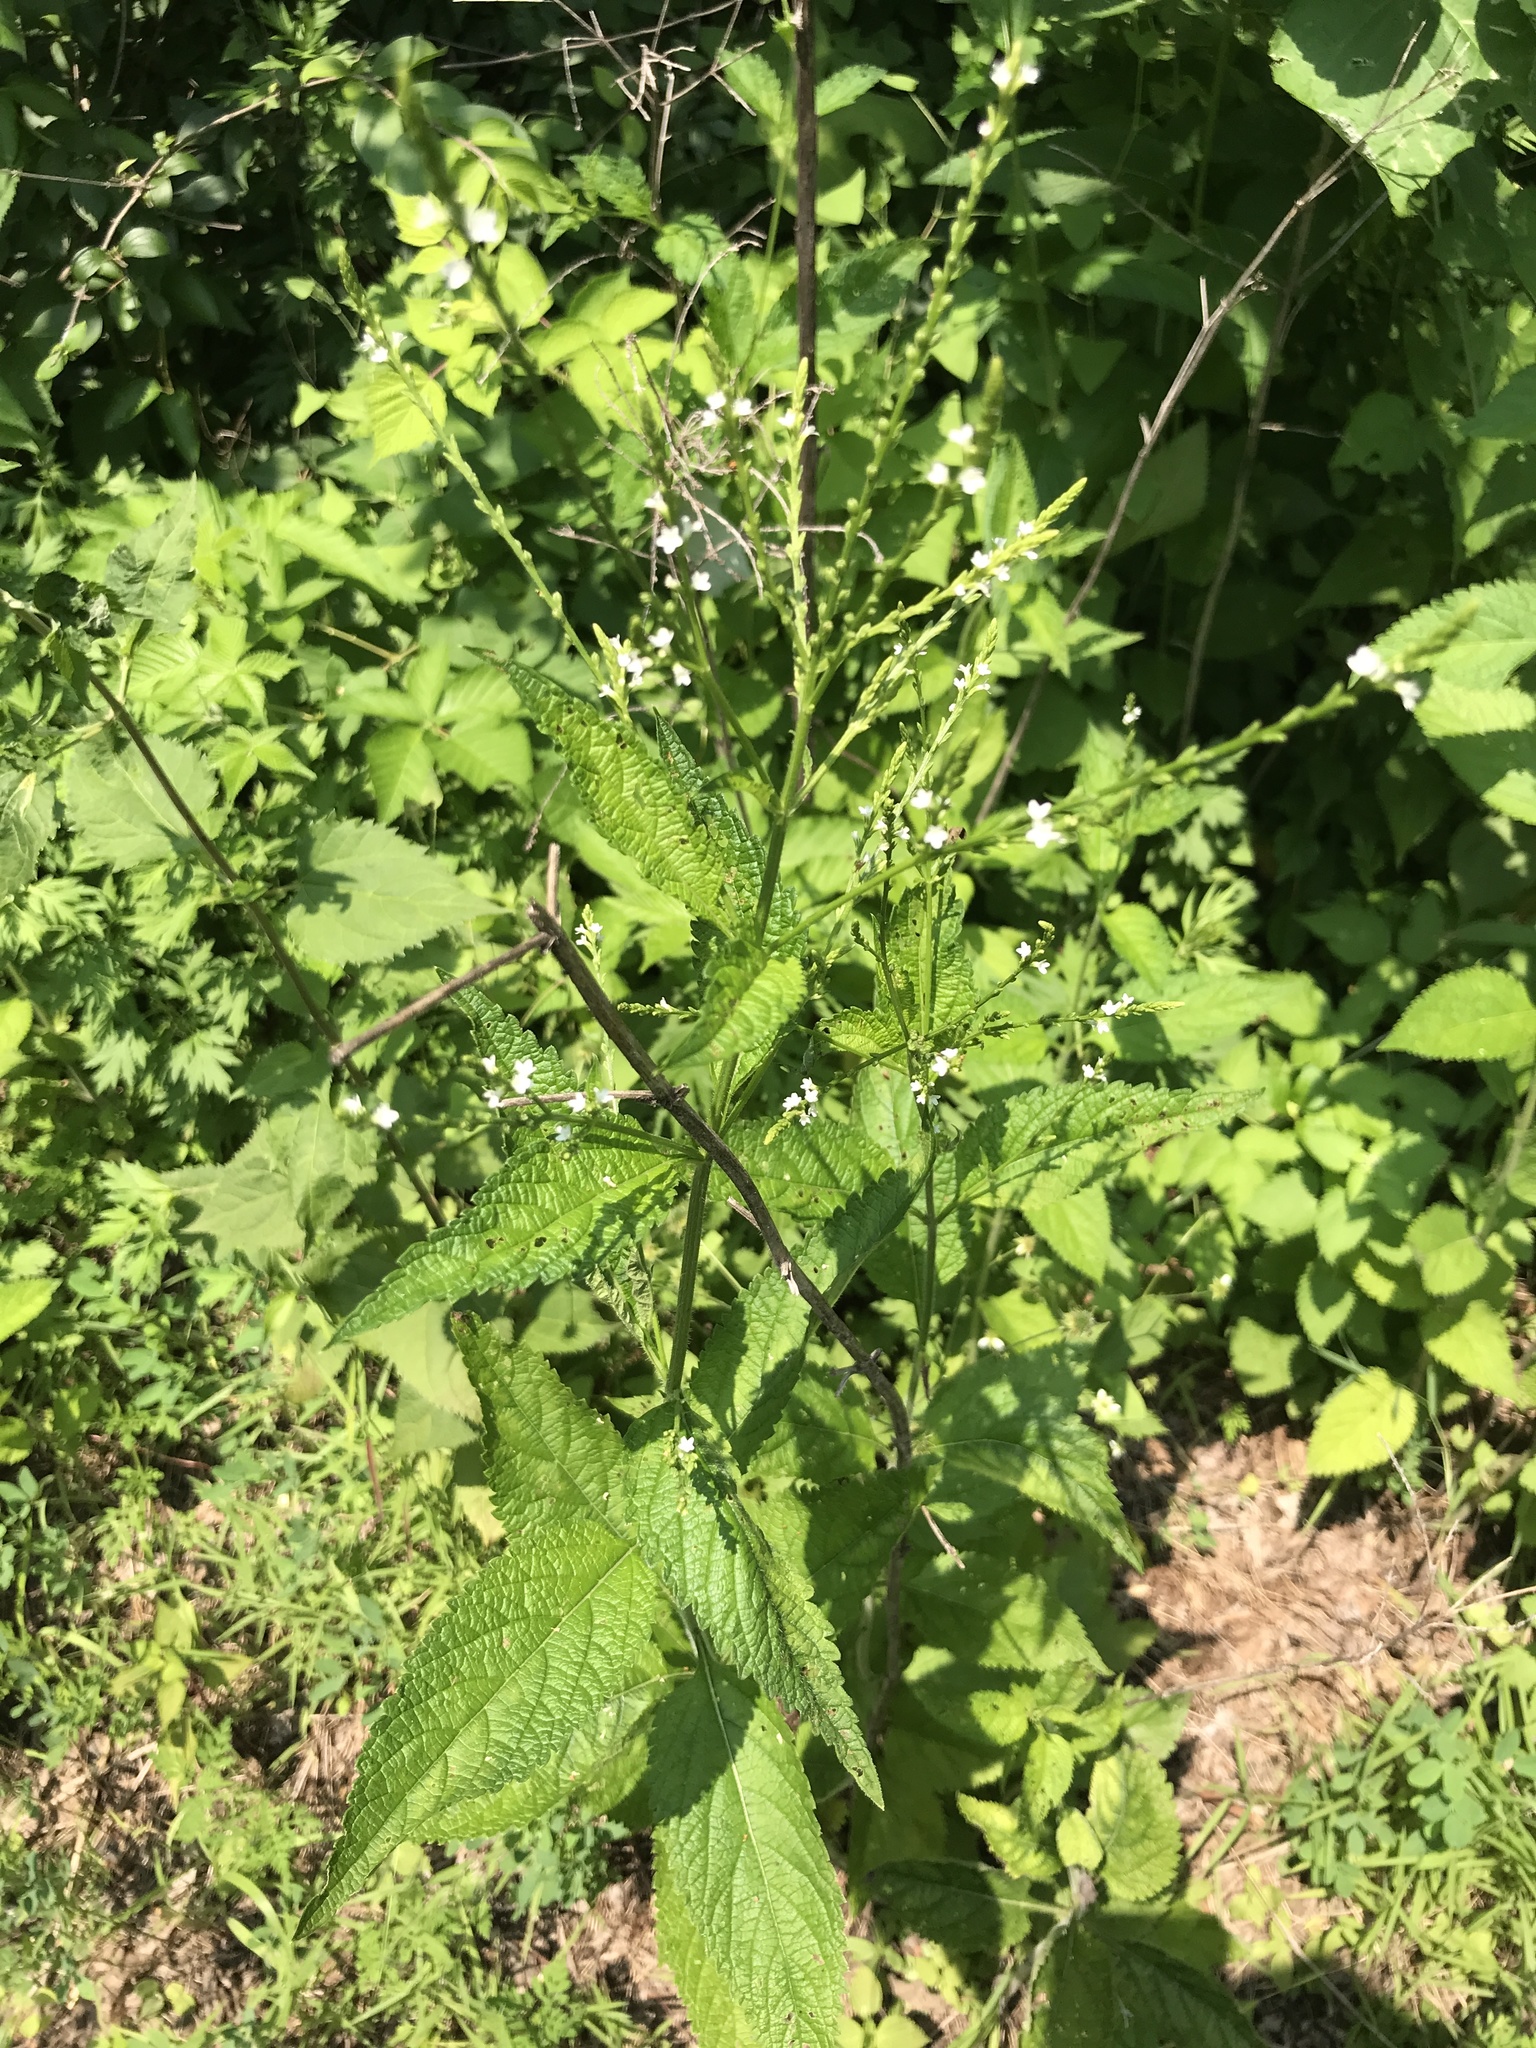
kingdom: Plantae
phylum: Tracheophyta
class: Magnoliopsida
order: Lamiales
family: Verbenaceae
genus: Verbena
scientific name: Verbena urticifolia
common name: Nettle-leaved vervain
